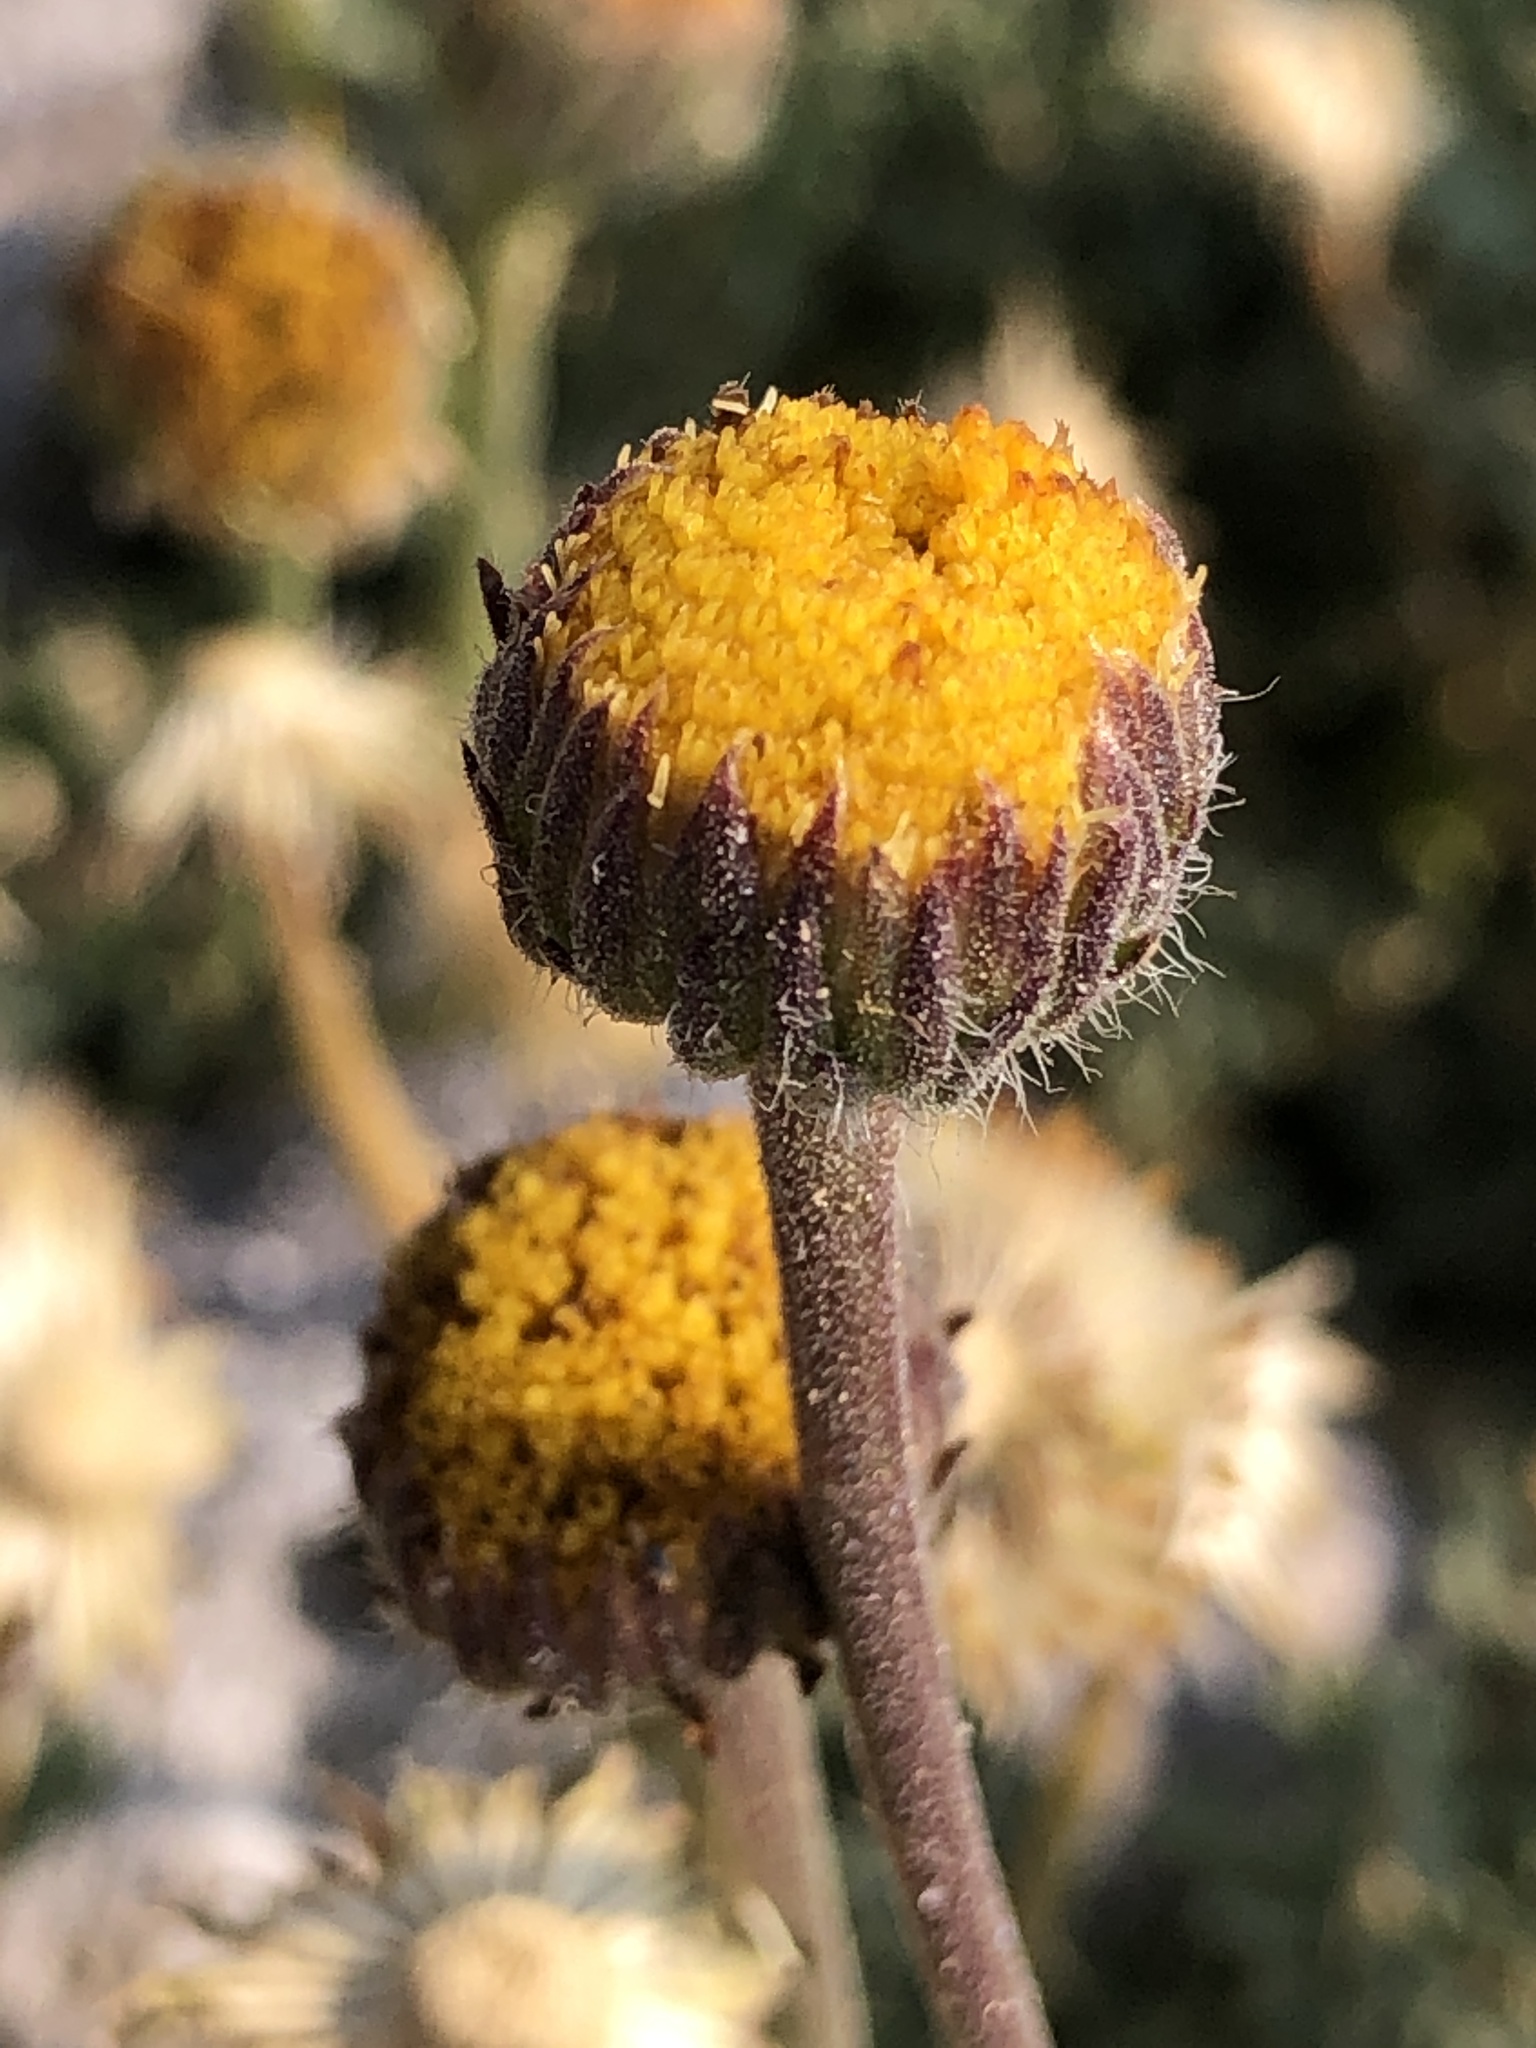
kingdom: Plantae
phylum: Tracheophyta
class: Magnoliopsida
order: Asterales
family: Asteraceae
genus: Erigeron
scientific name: Erigeron compositus
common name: Dwarf mountain fleabane
